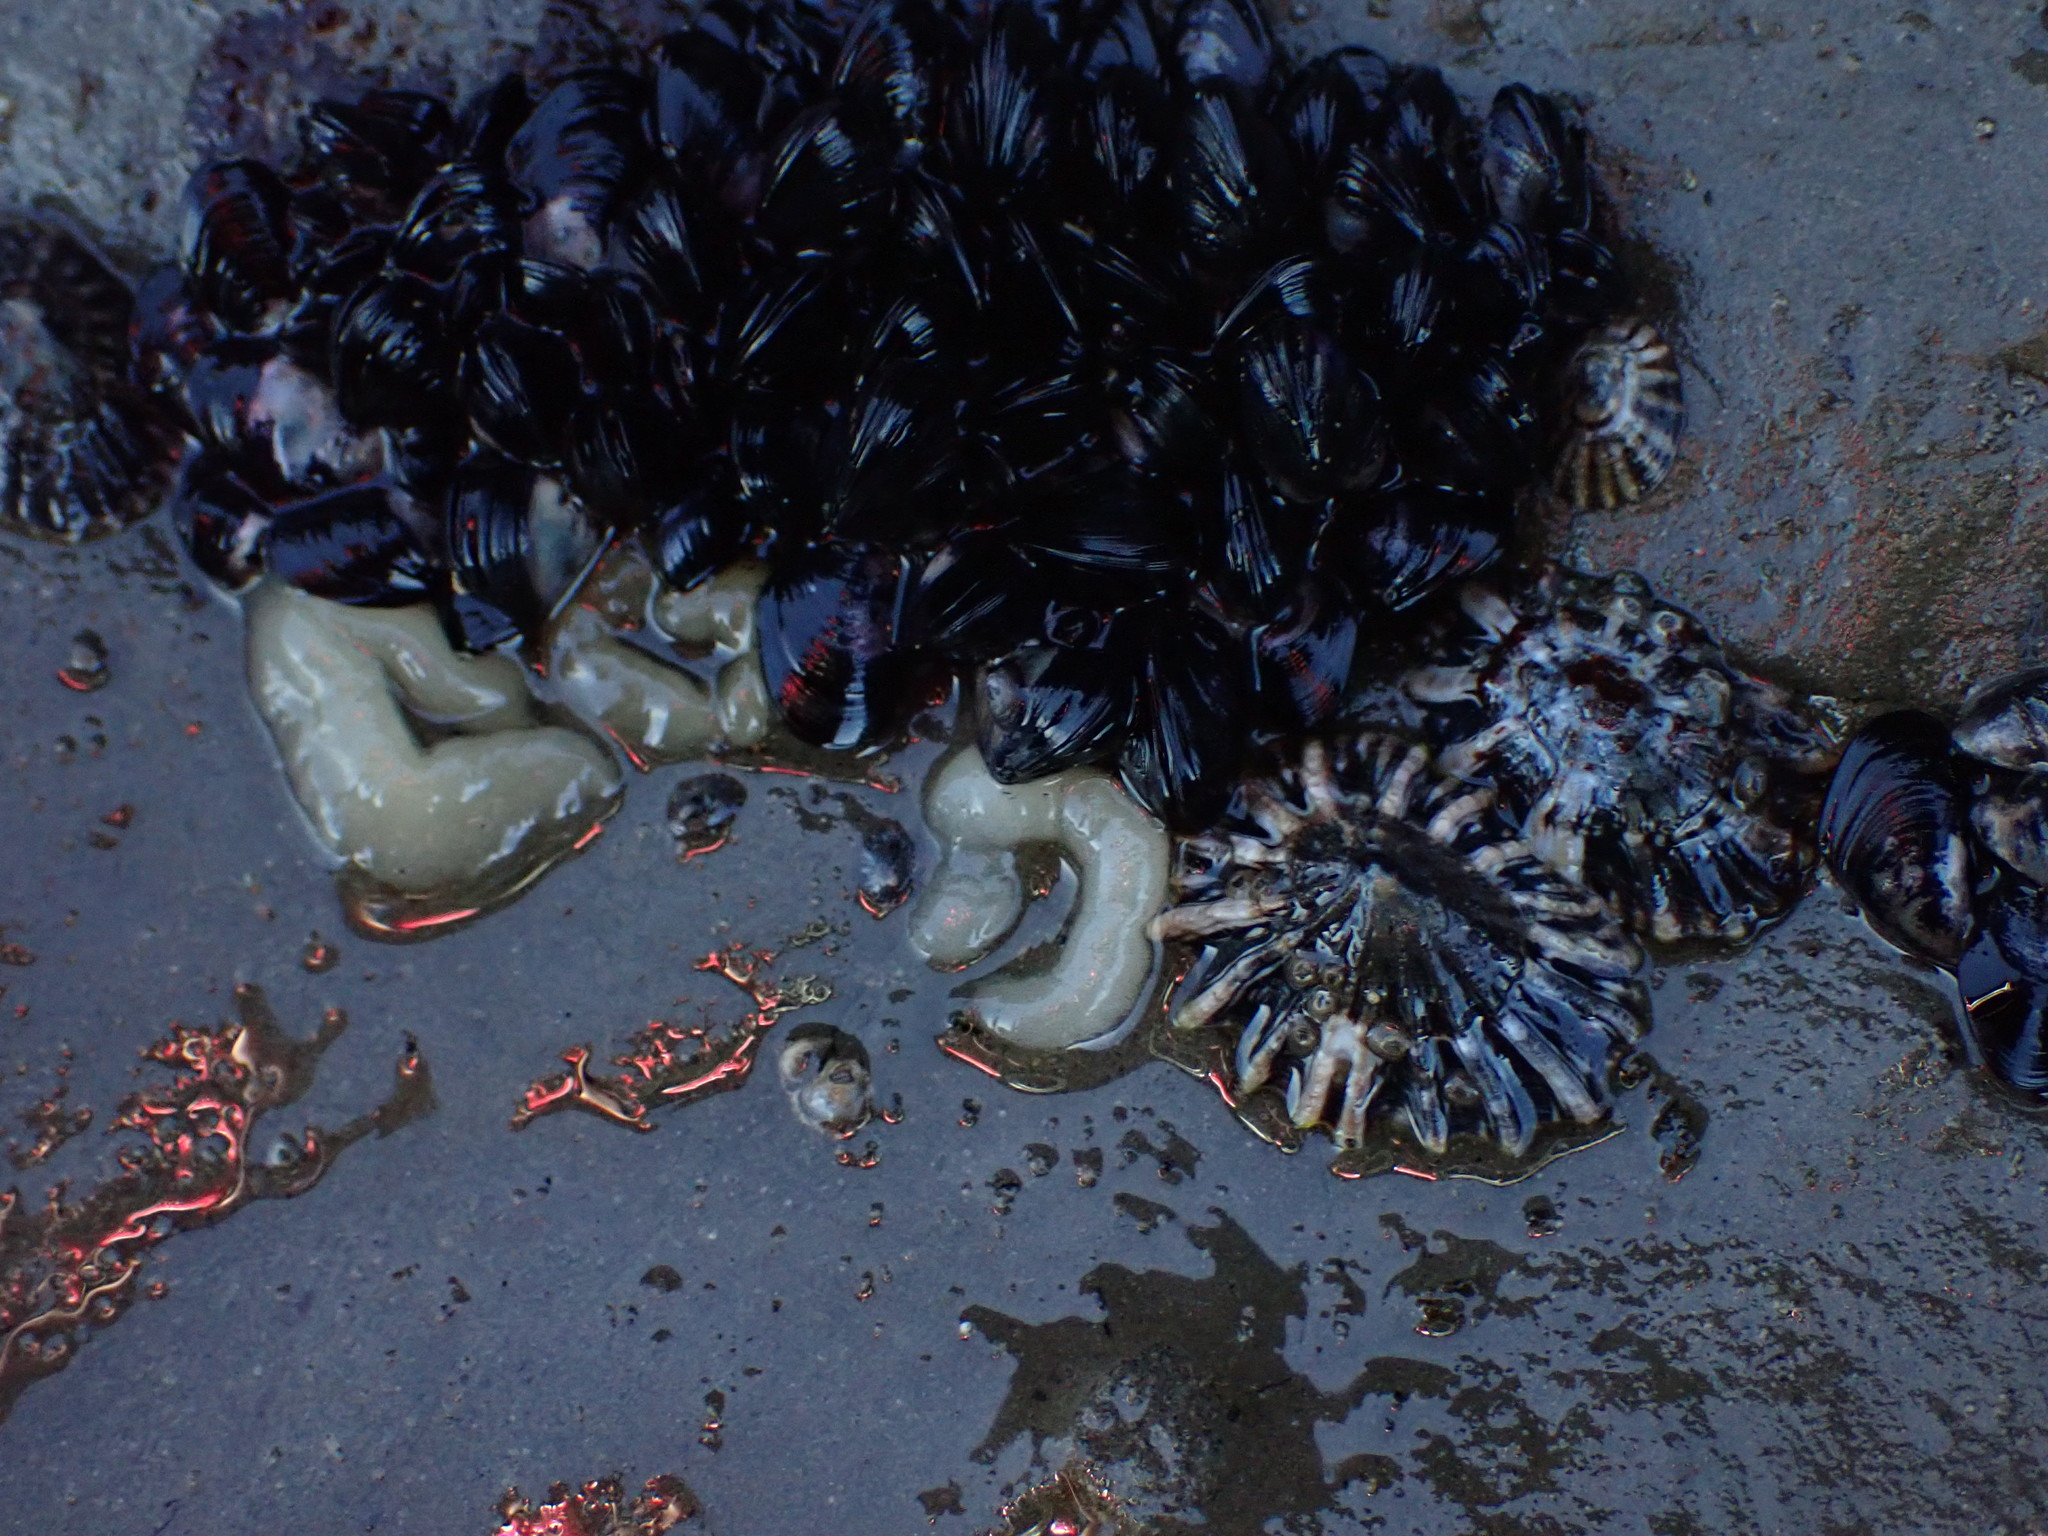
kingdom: Animalia
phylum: Mollusca
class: Gastropoda
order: Siphonariida
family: Siphonariidae
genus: Siphonaria
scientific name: Siphonaria australis
